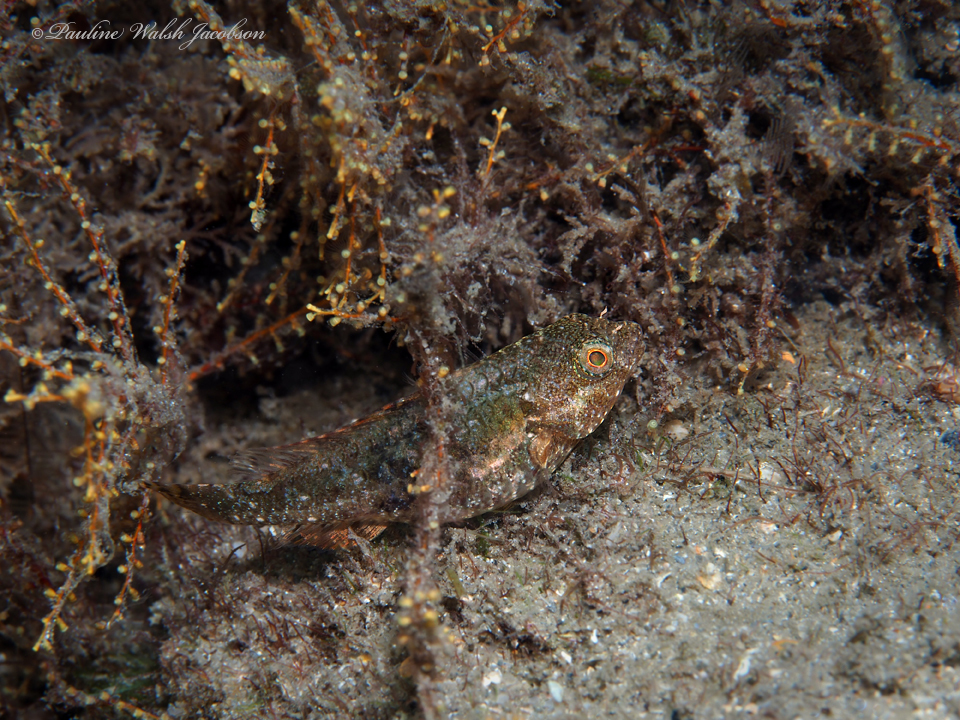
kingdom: Animalia
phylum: Chordata
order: Perciformes
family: Scaridae
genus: Sparisoma
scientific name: Sparisoma aurofrenatum
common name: Redband parrotfish
